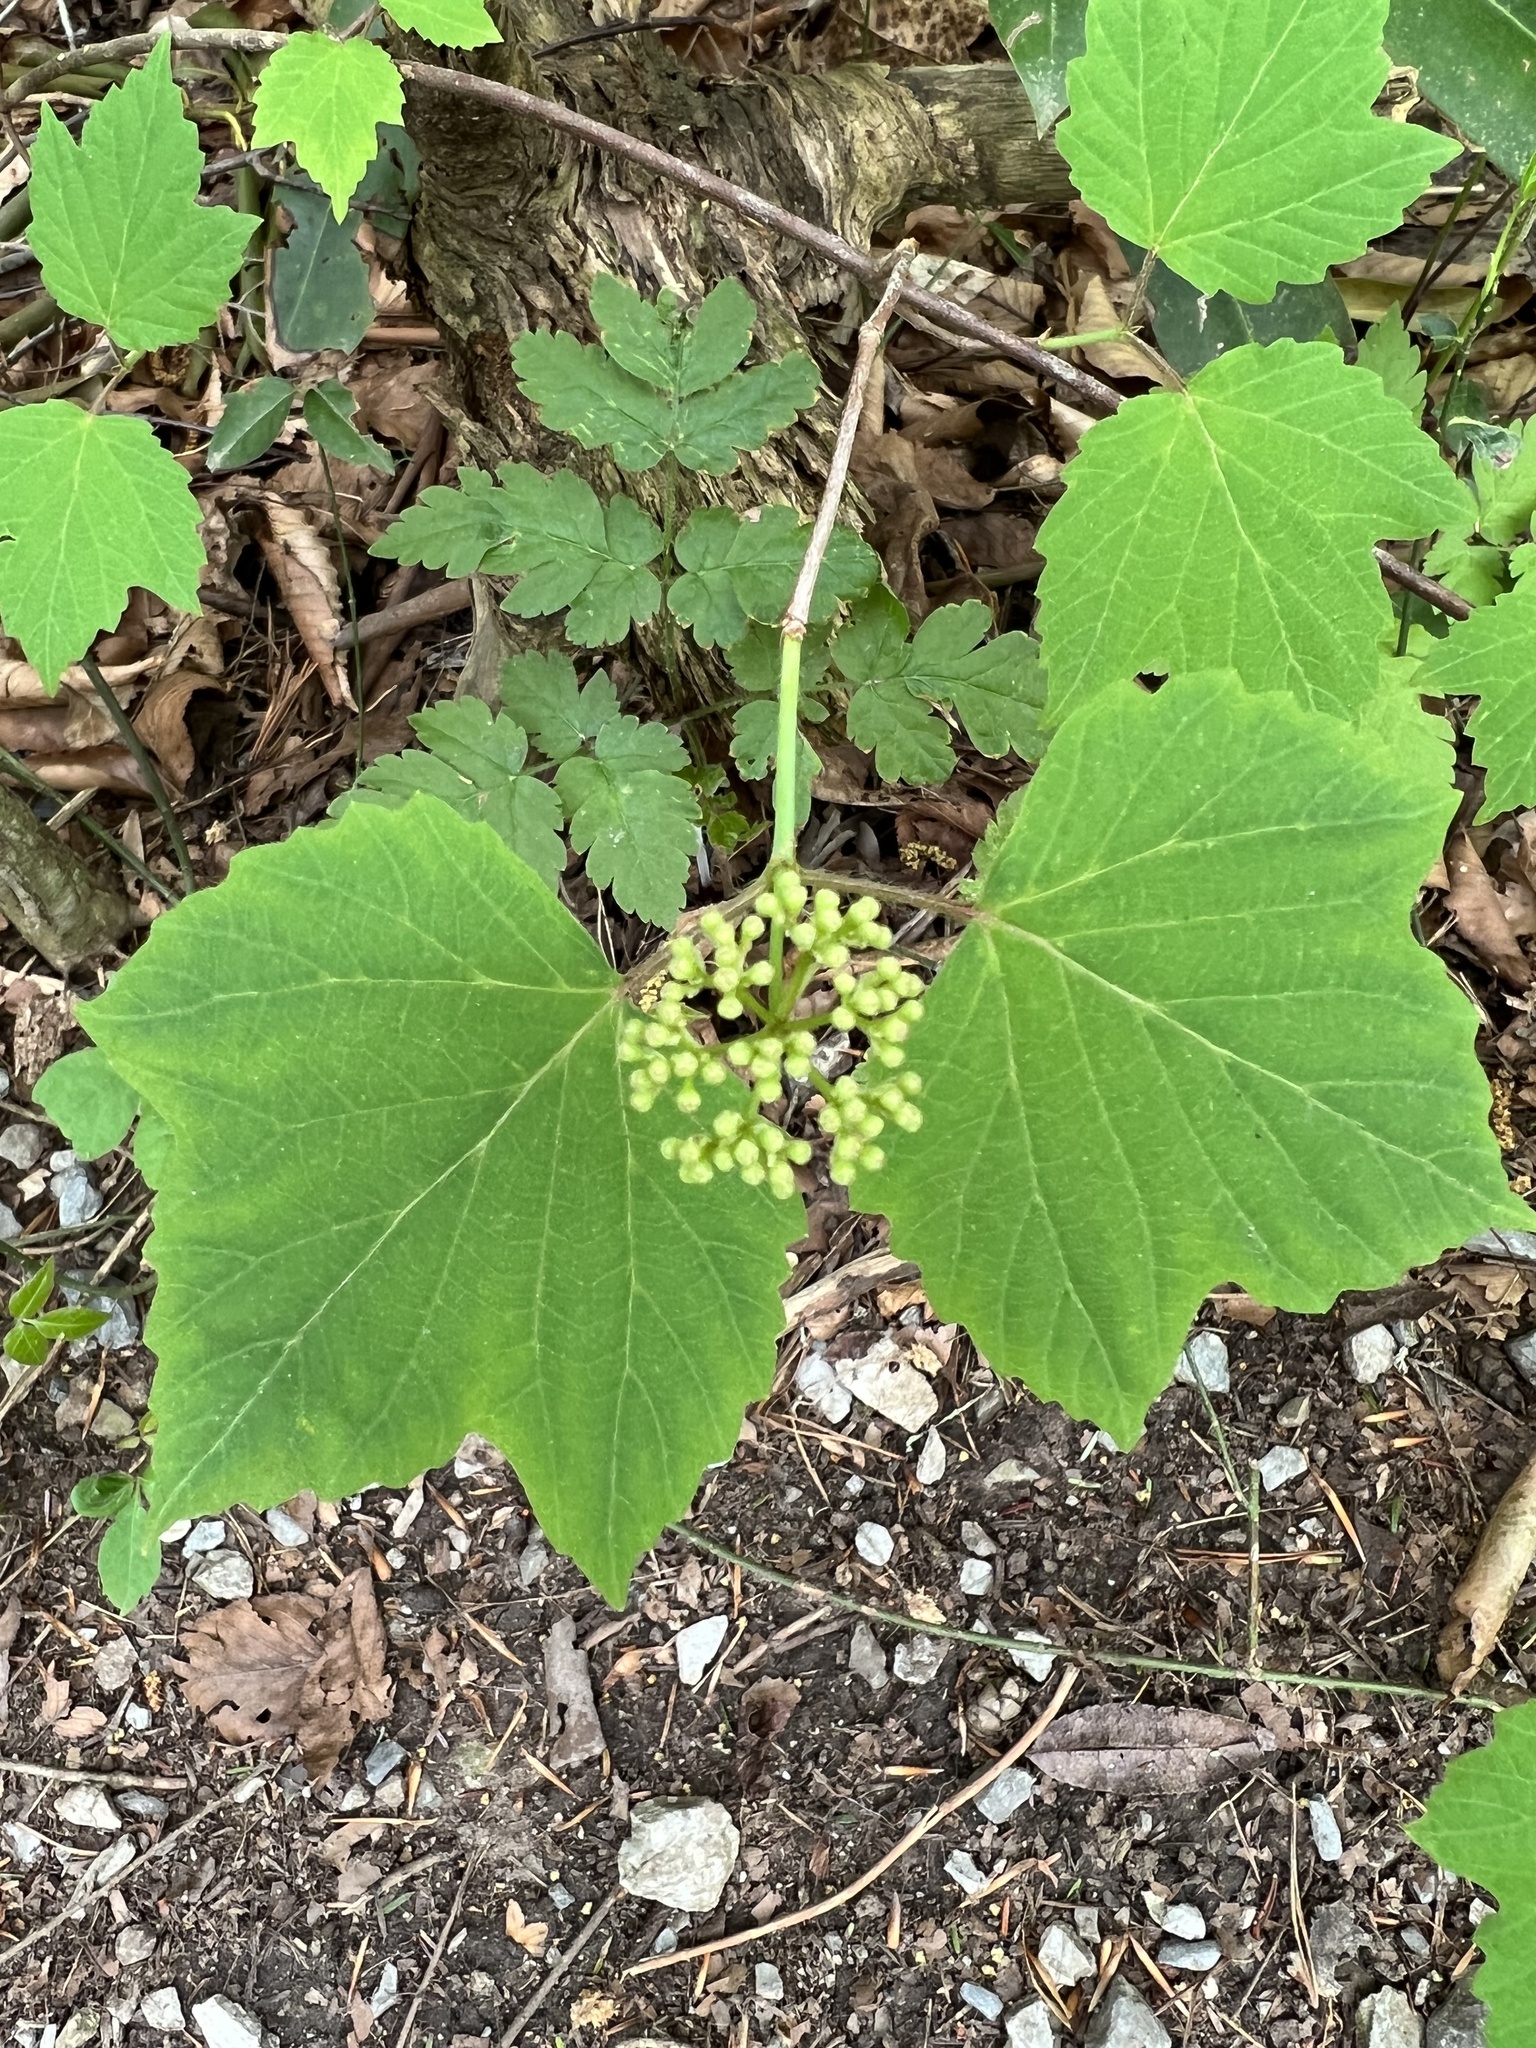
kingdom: Plantae
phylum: Tracheophyta
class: Magnoliopsida
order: Dipsacales
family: Viburnaceae
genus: Viburnum
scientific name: Viburnum acerifolium
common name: Dockmackie
